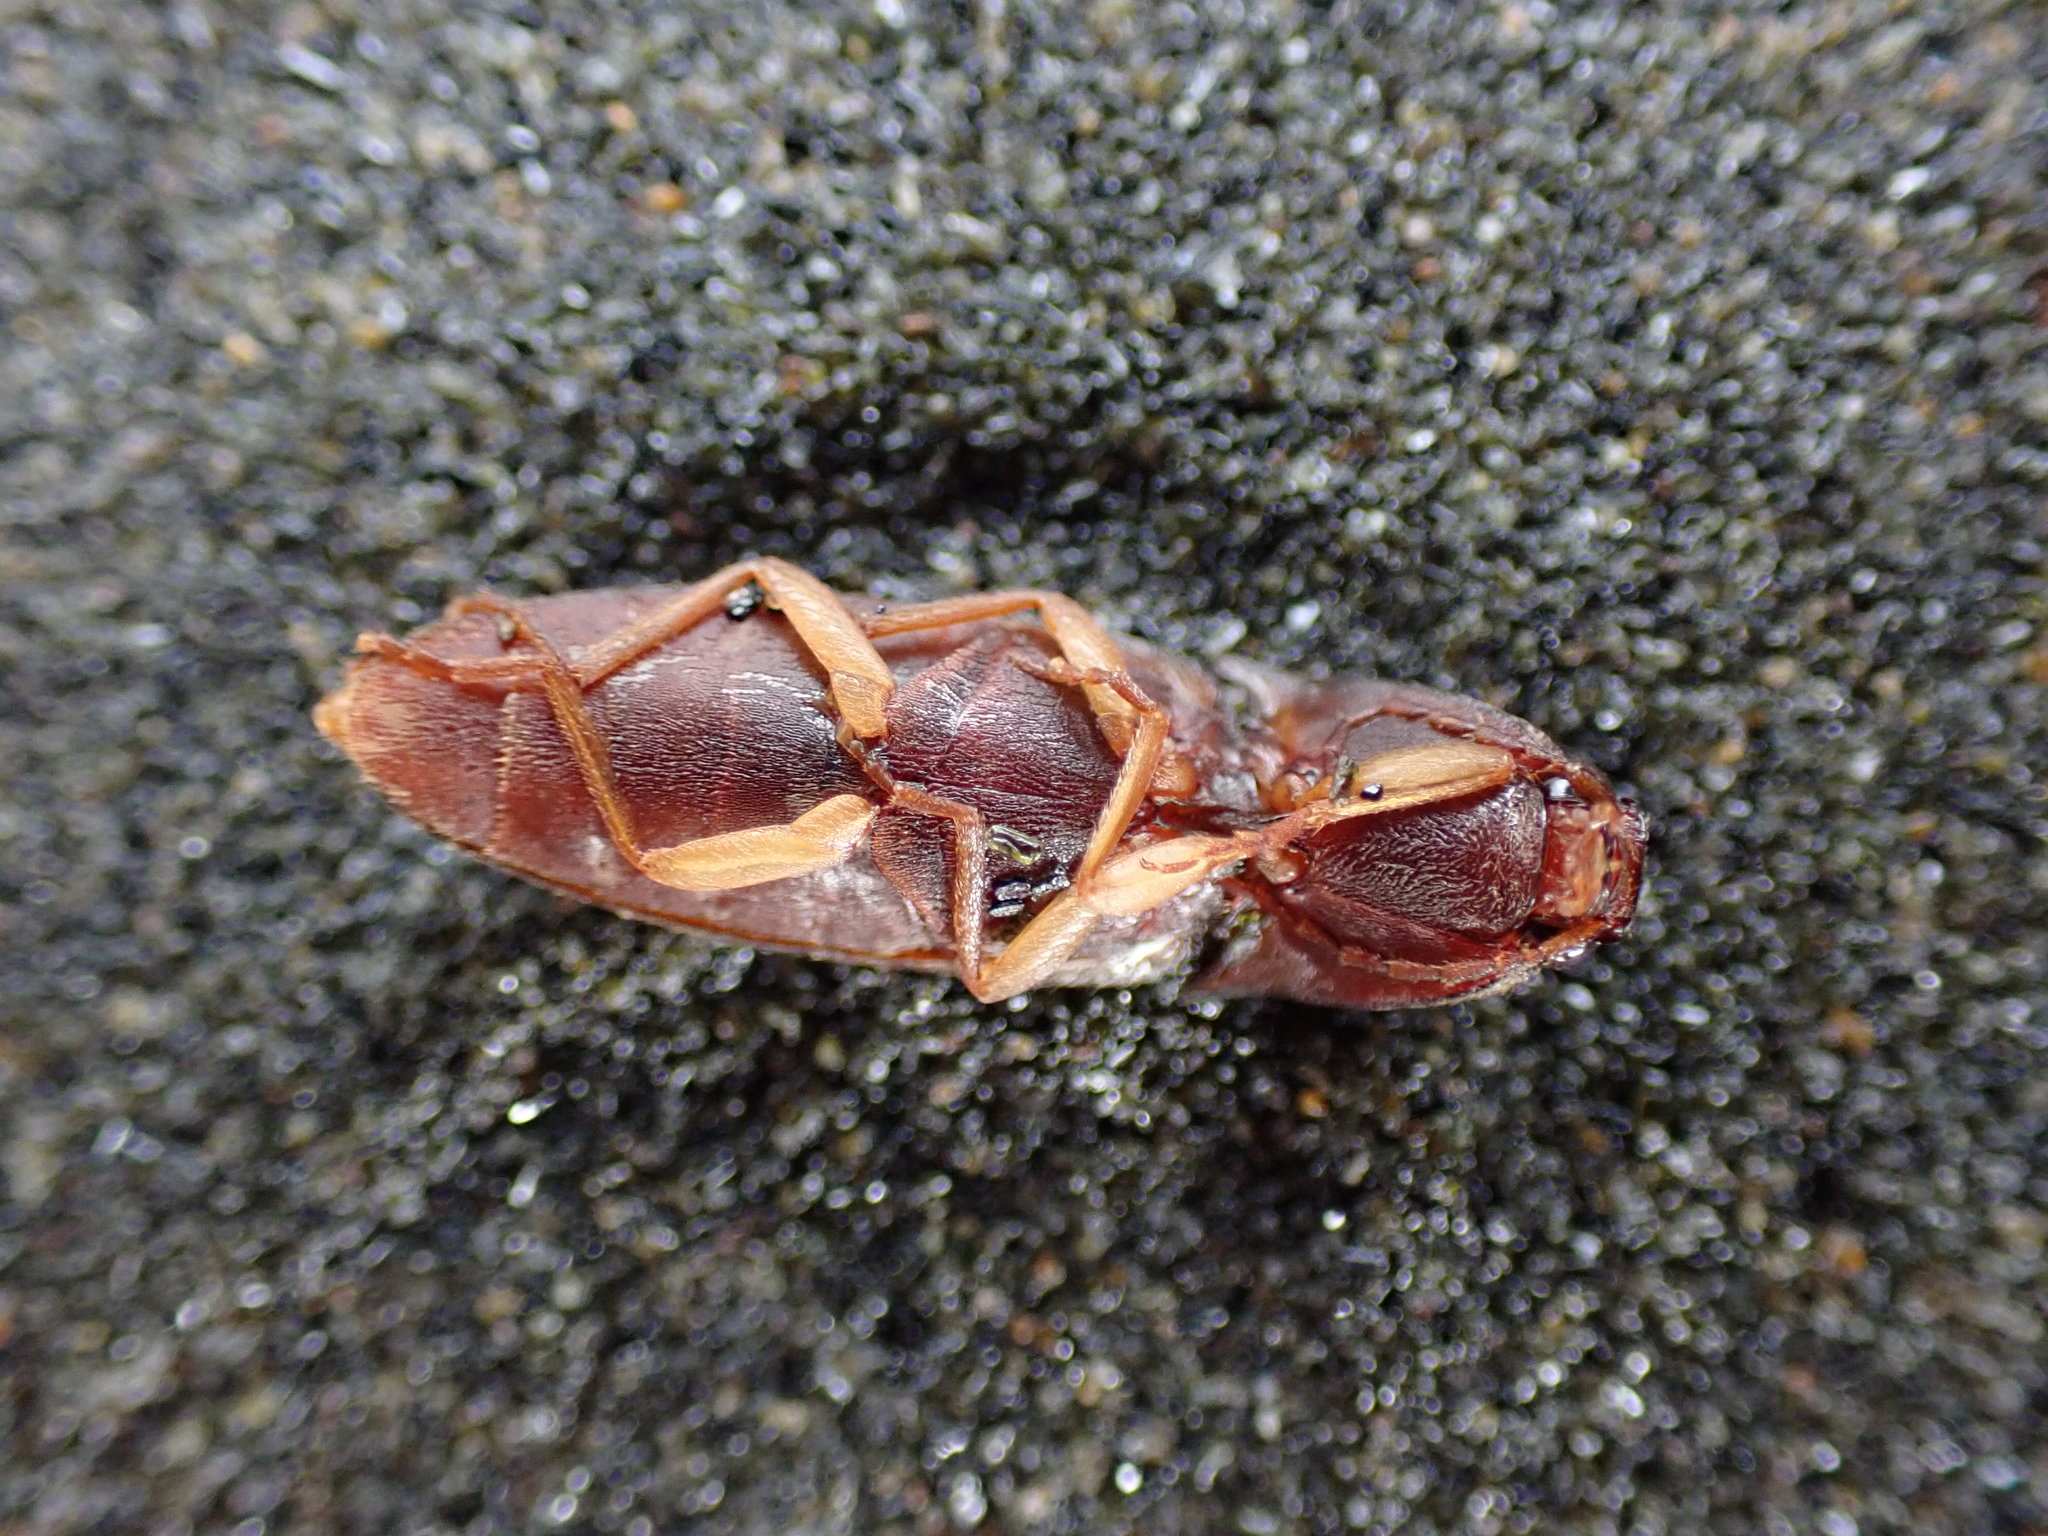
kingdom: Animalia
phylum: Arthropoda
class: Insecta
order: Coleoptera
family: Elateridae
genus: Conoderus
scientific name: Conoderus exsul
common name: Click beetle
